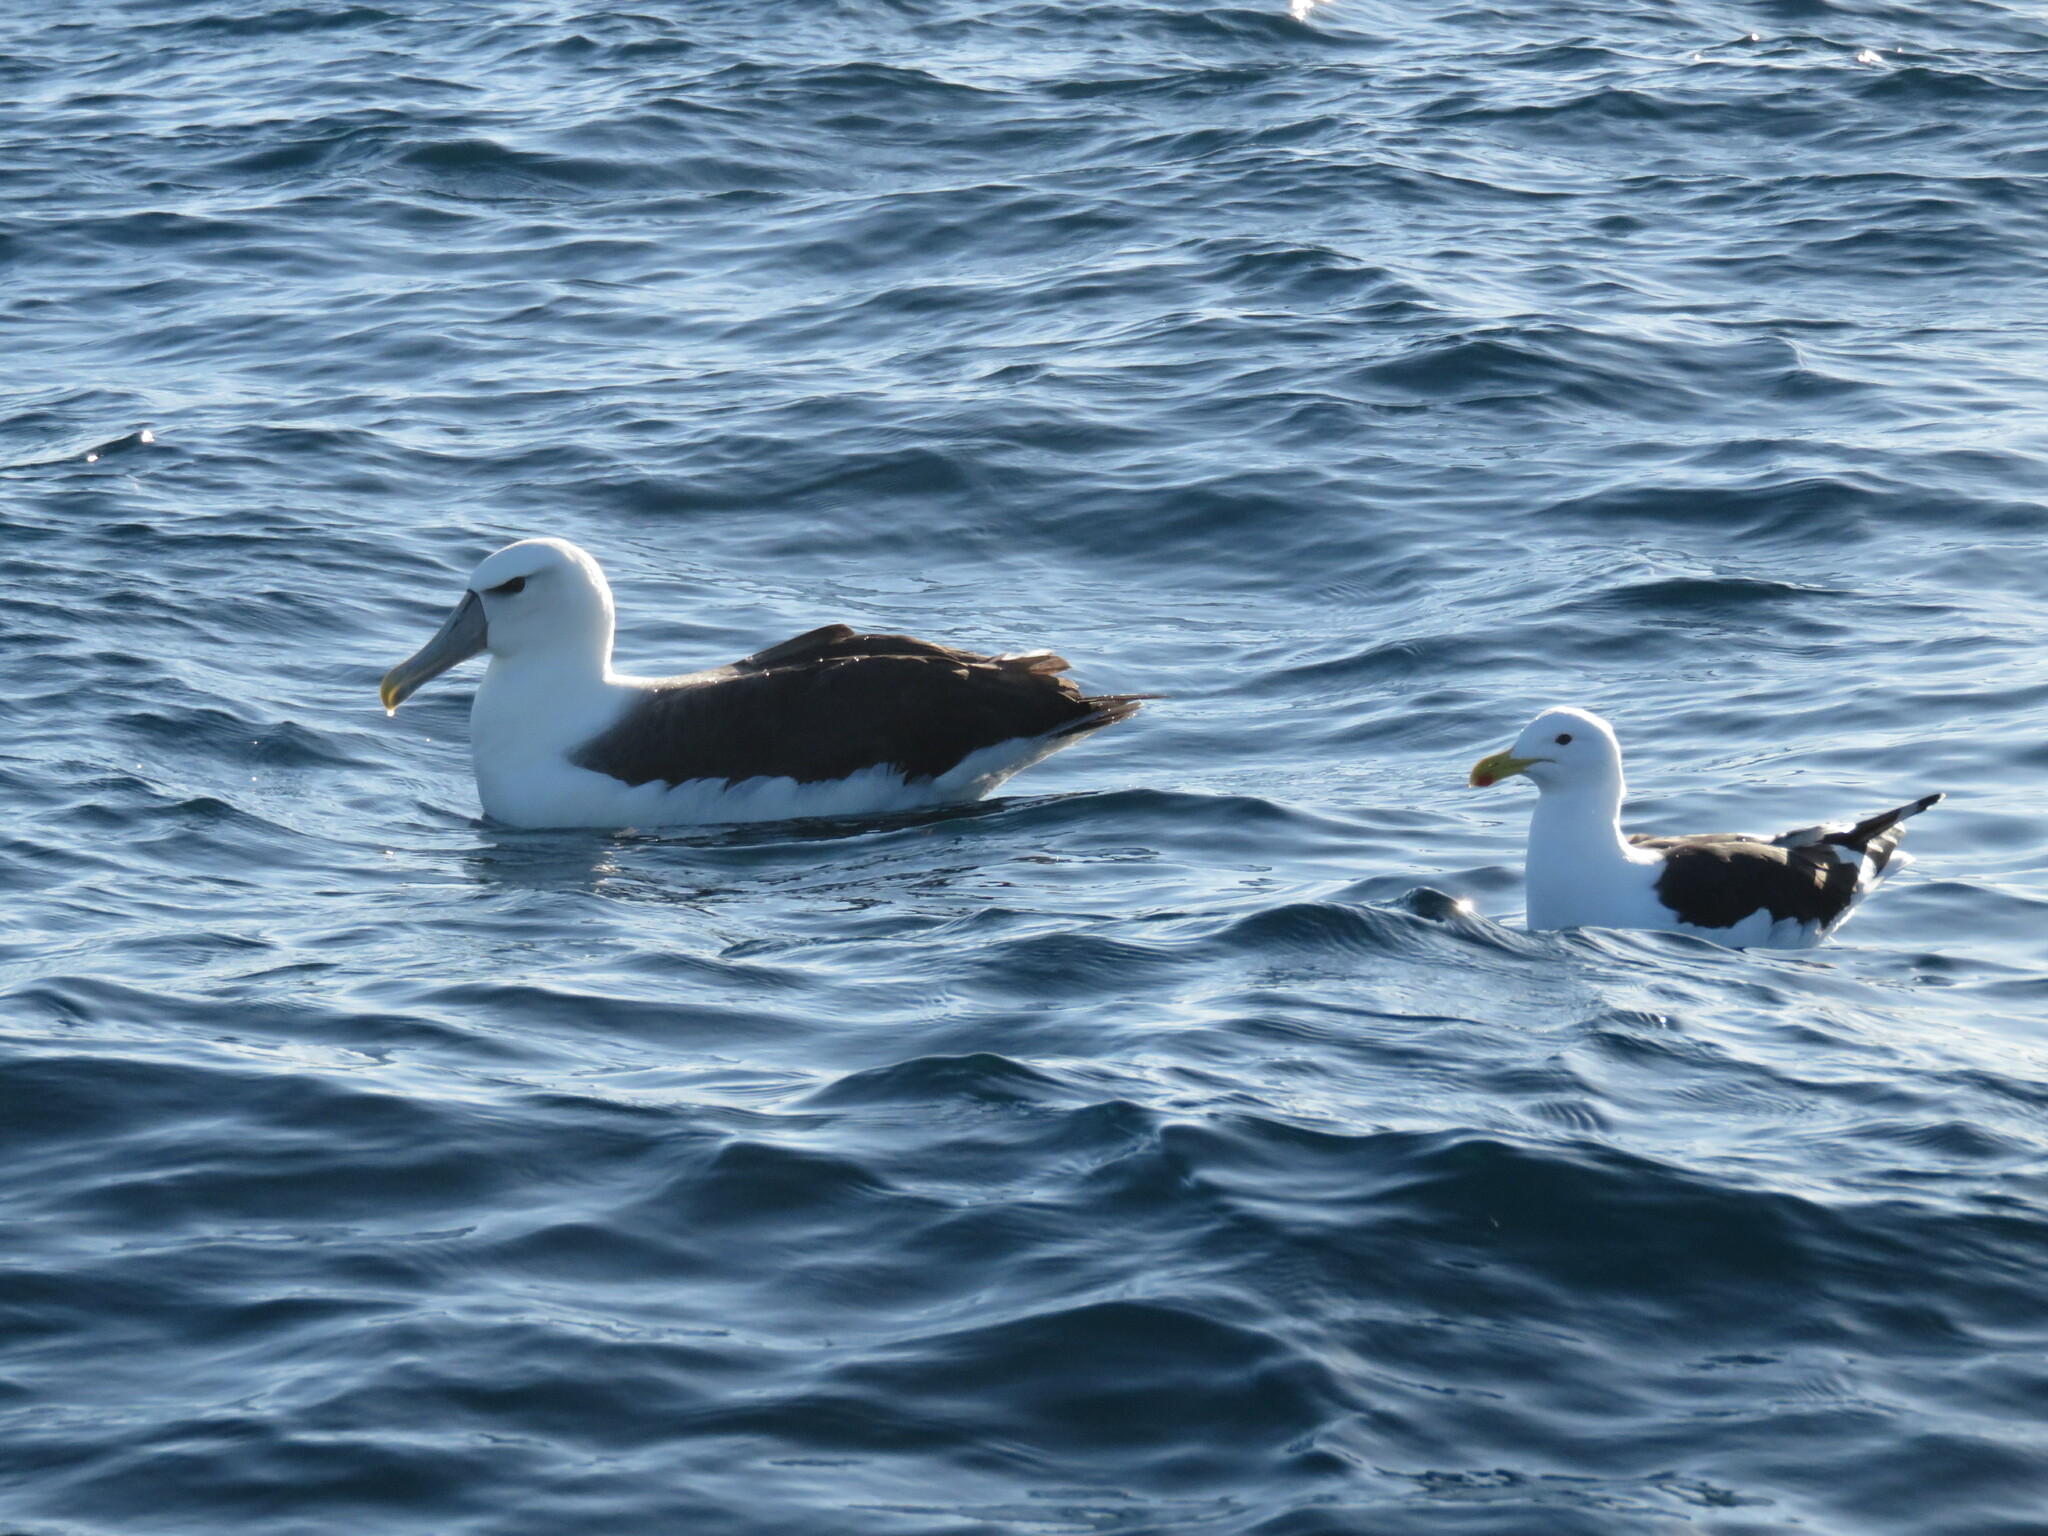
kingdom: Animalia
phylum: Chordata
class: Aves
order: Procellariiformes
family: Diomedeidae
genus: Thalassarche
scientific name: Thalassarche cauta
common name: Shy albatross
